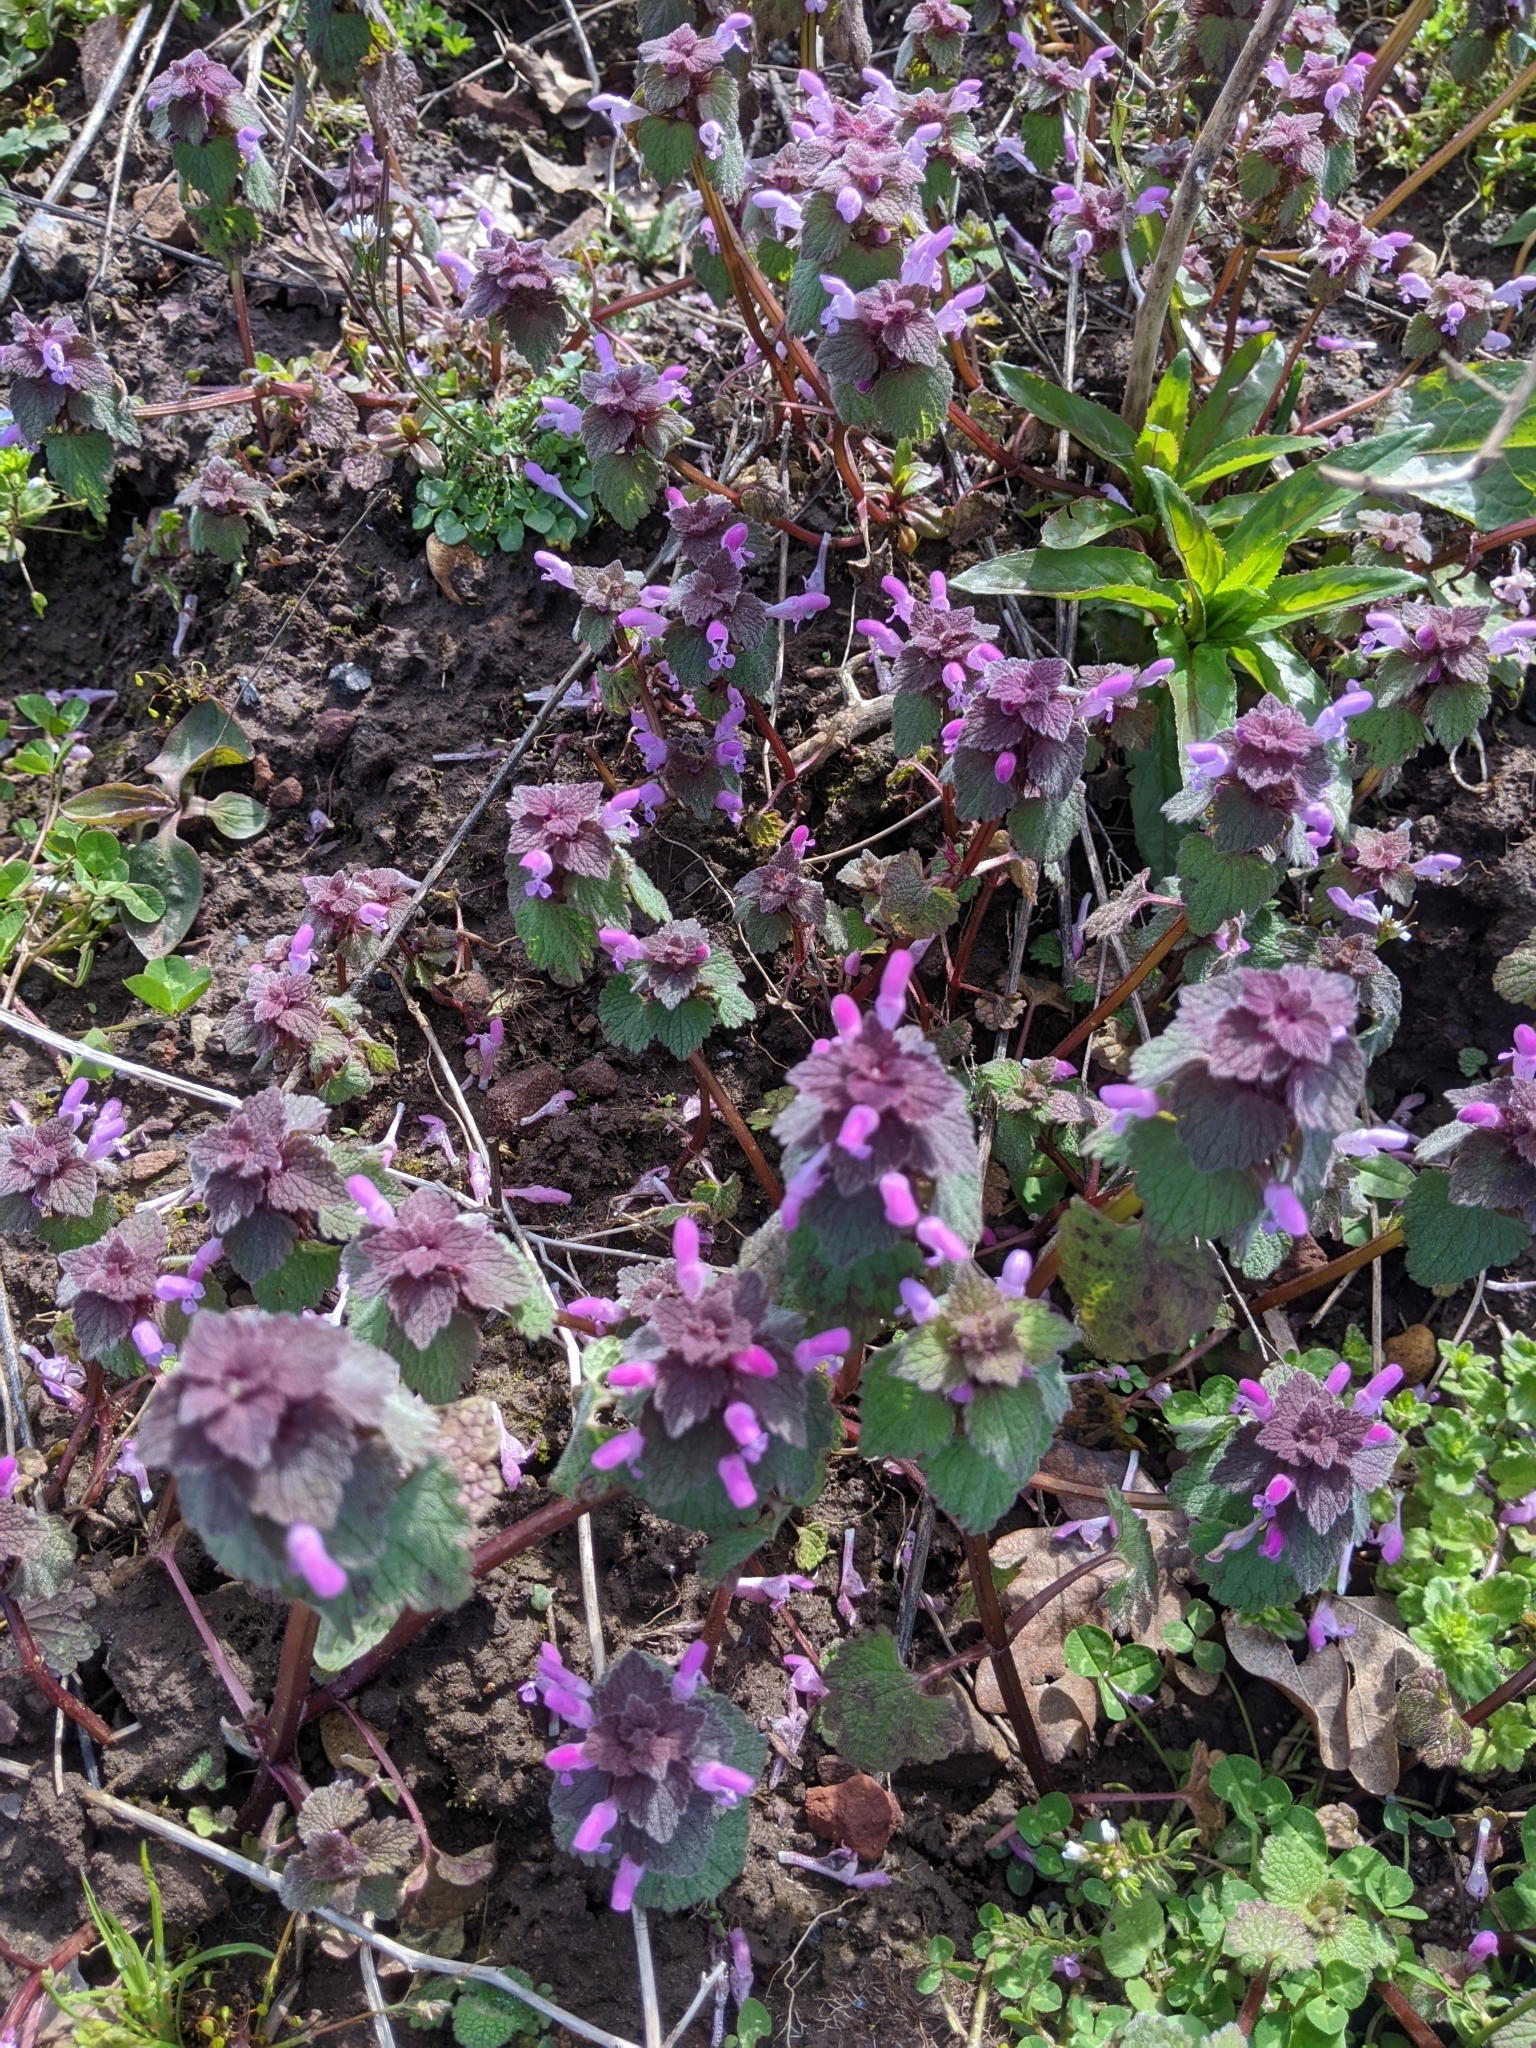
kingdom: Plantae
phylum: Tracheophyta
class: Magnoliopsida
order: Lamiales
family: Lamiaceae
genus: Lamium
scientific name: Lamium purpureum
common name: Red dead-nettle
